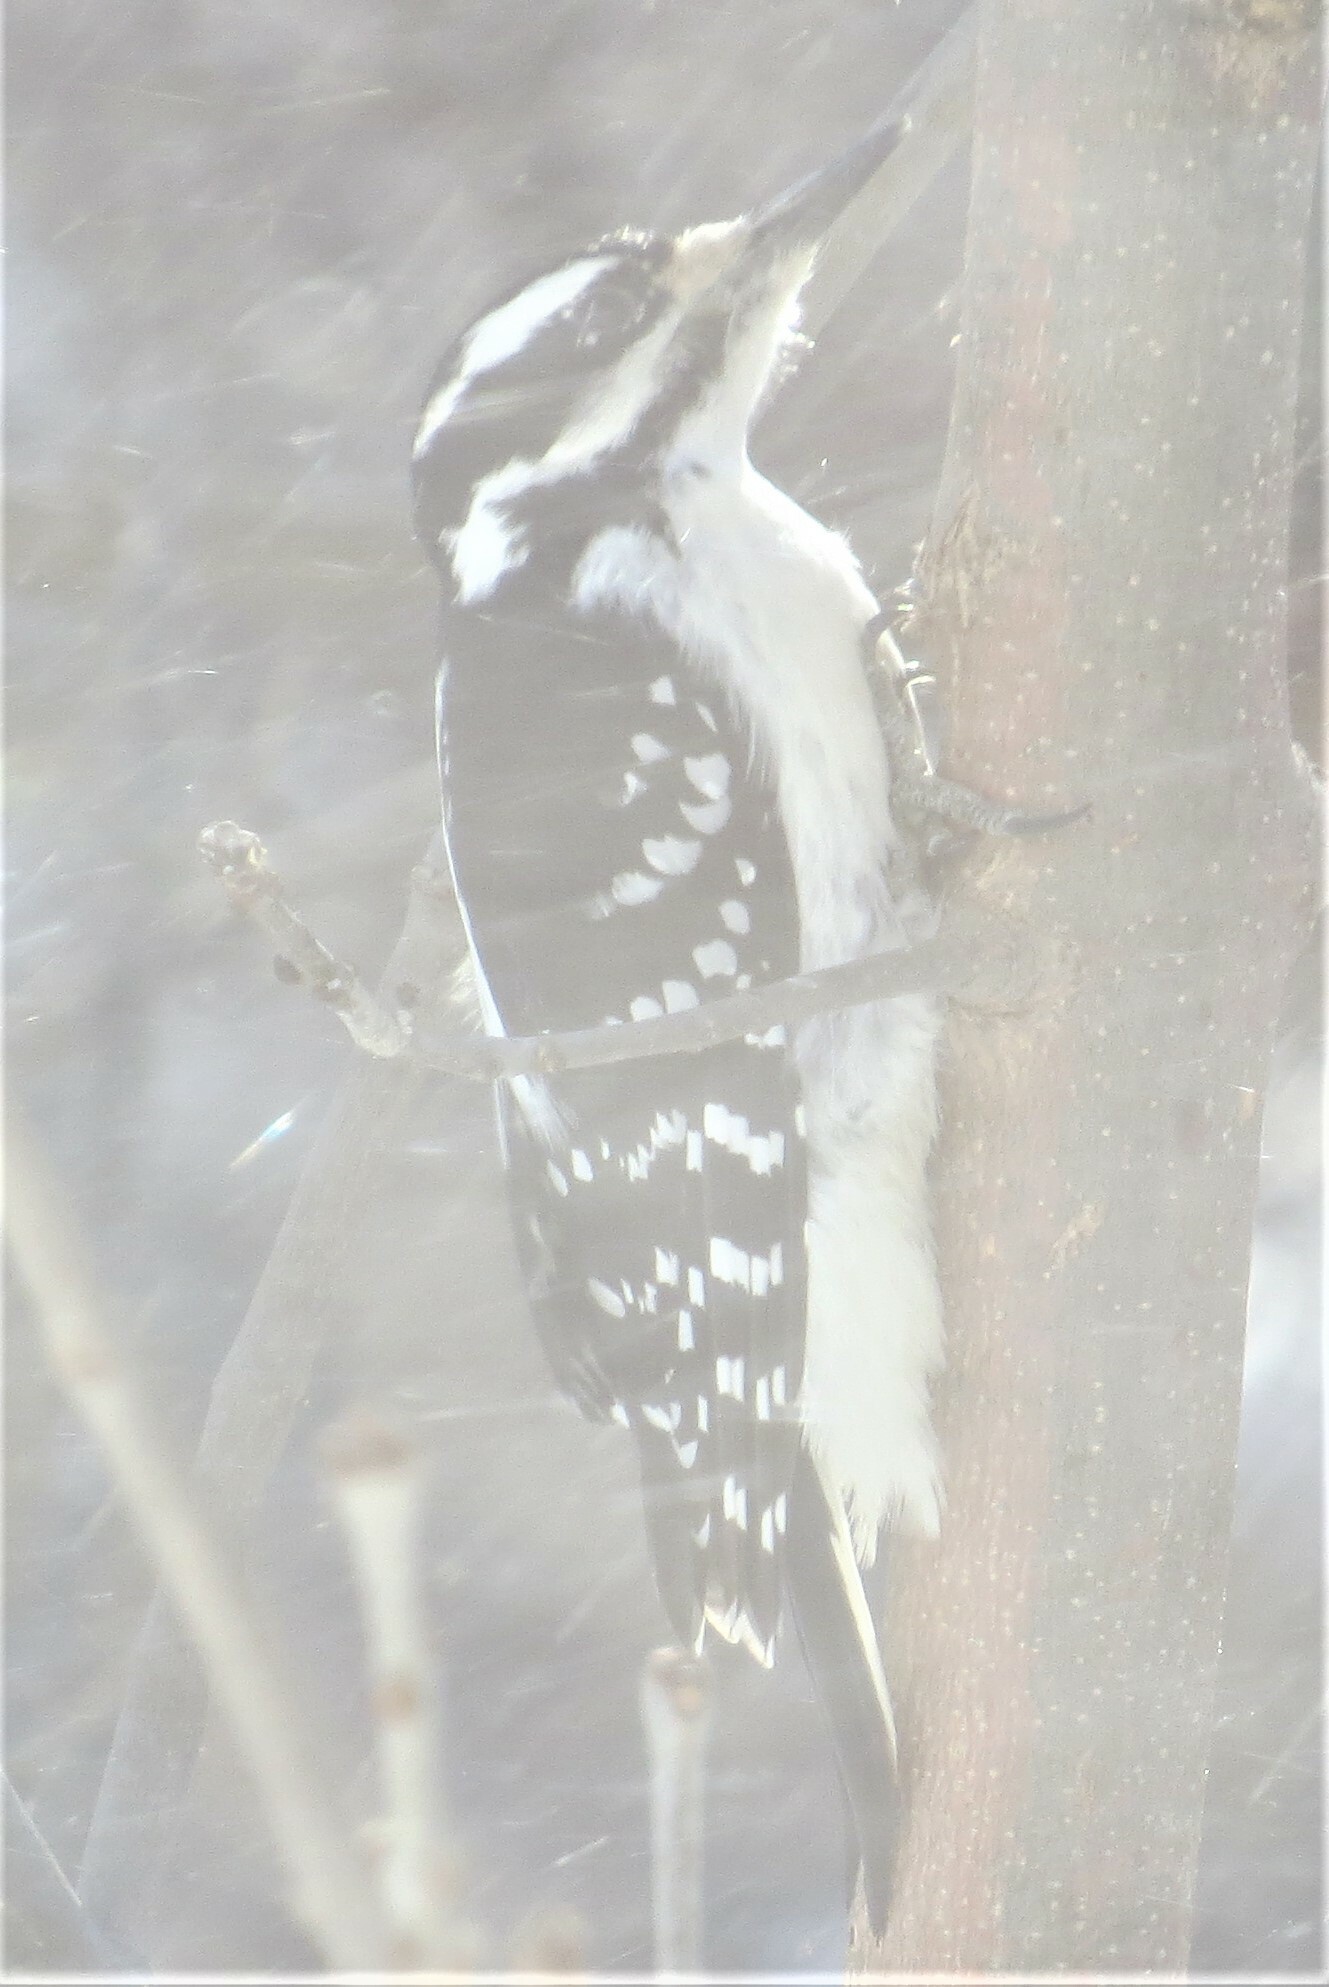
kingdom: Animalia
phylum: Chordata
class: Aves
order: Piciformes
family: Picidae
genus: Leuconotopicus
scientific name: Leuconotopicus villosus
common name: Hairy woodpecker
